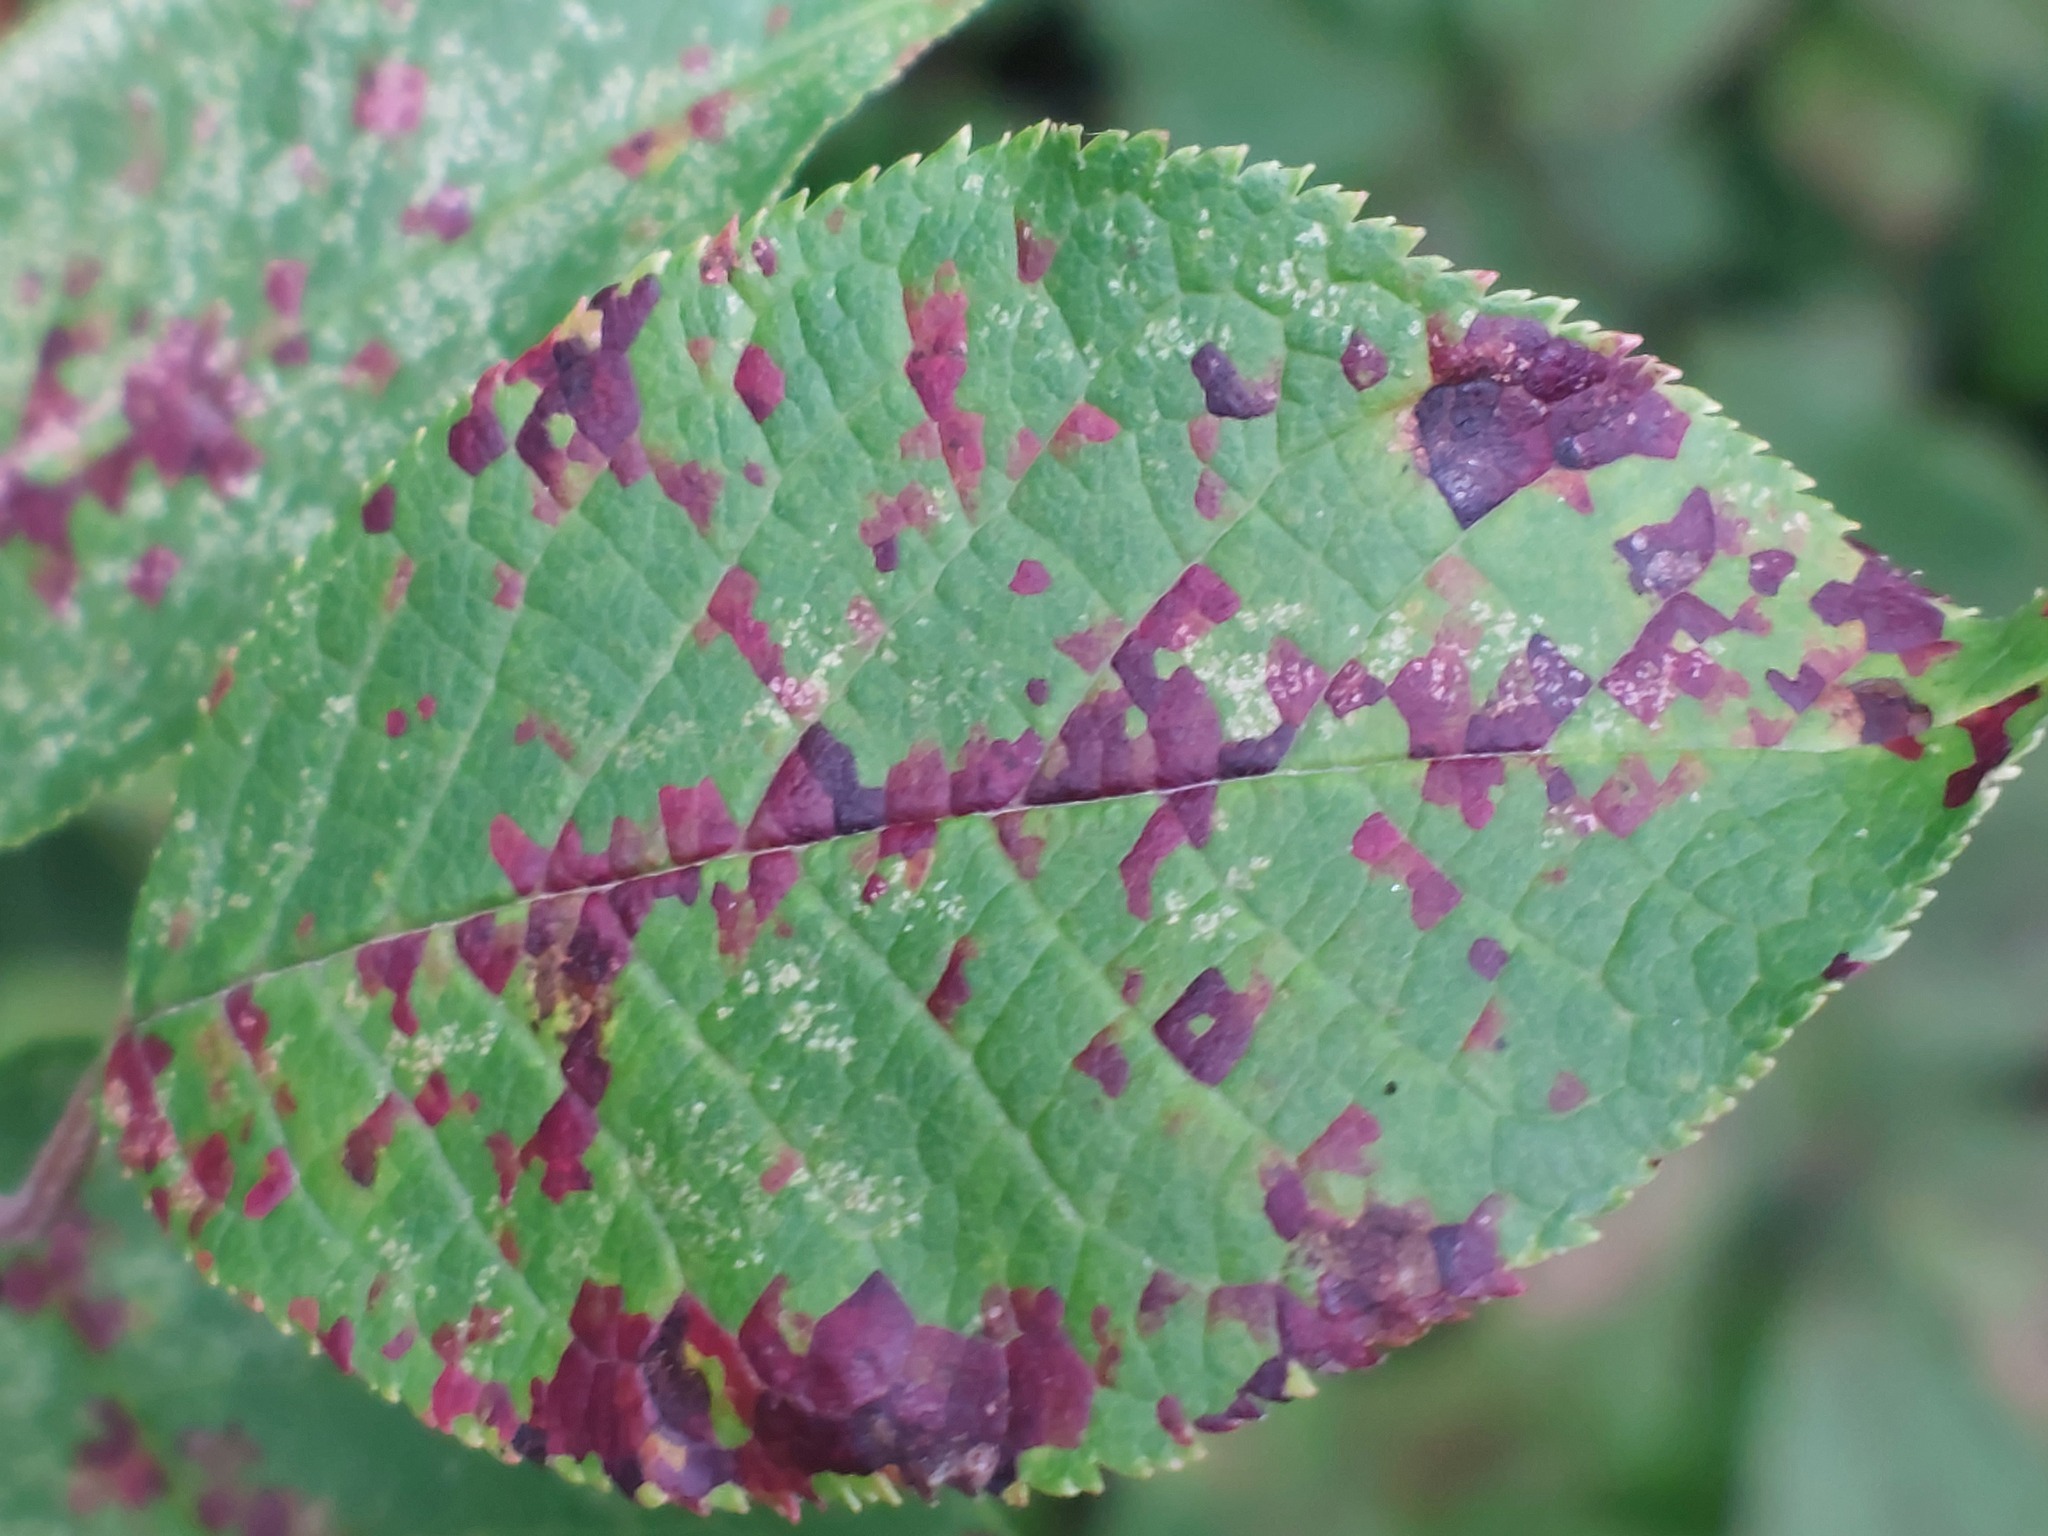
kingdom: Fungi
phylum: Basidiomycota
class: Pucciniomycetes
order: Pucciniales
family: Pucciniastraceae
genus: Thekopsora
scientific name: Thekopsora areolata
